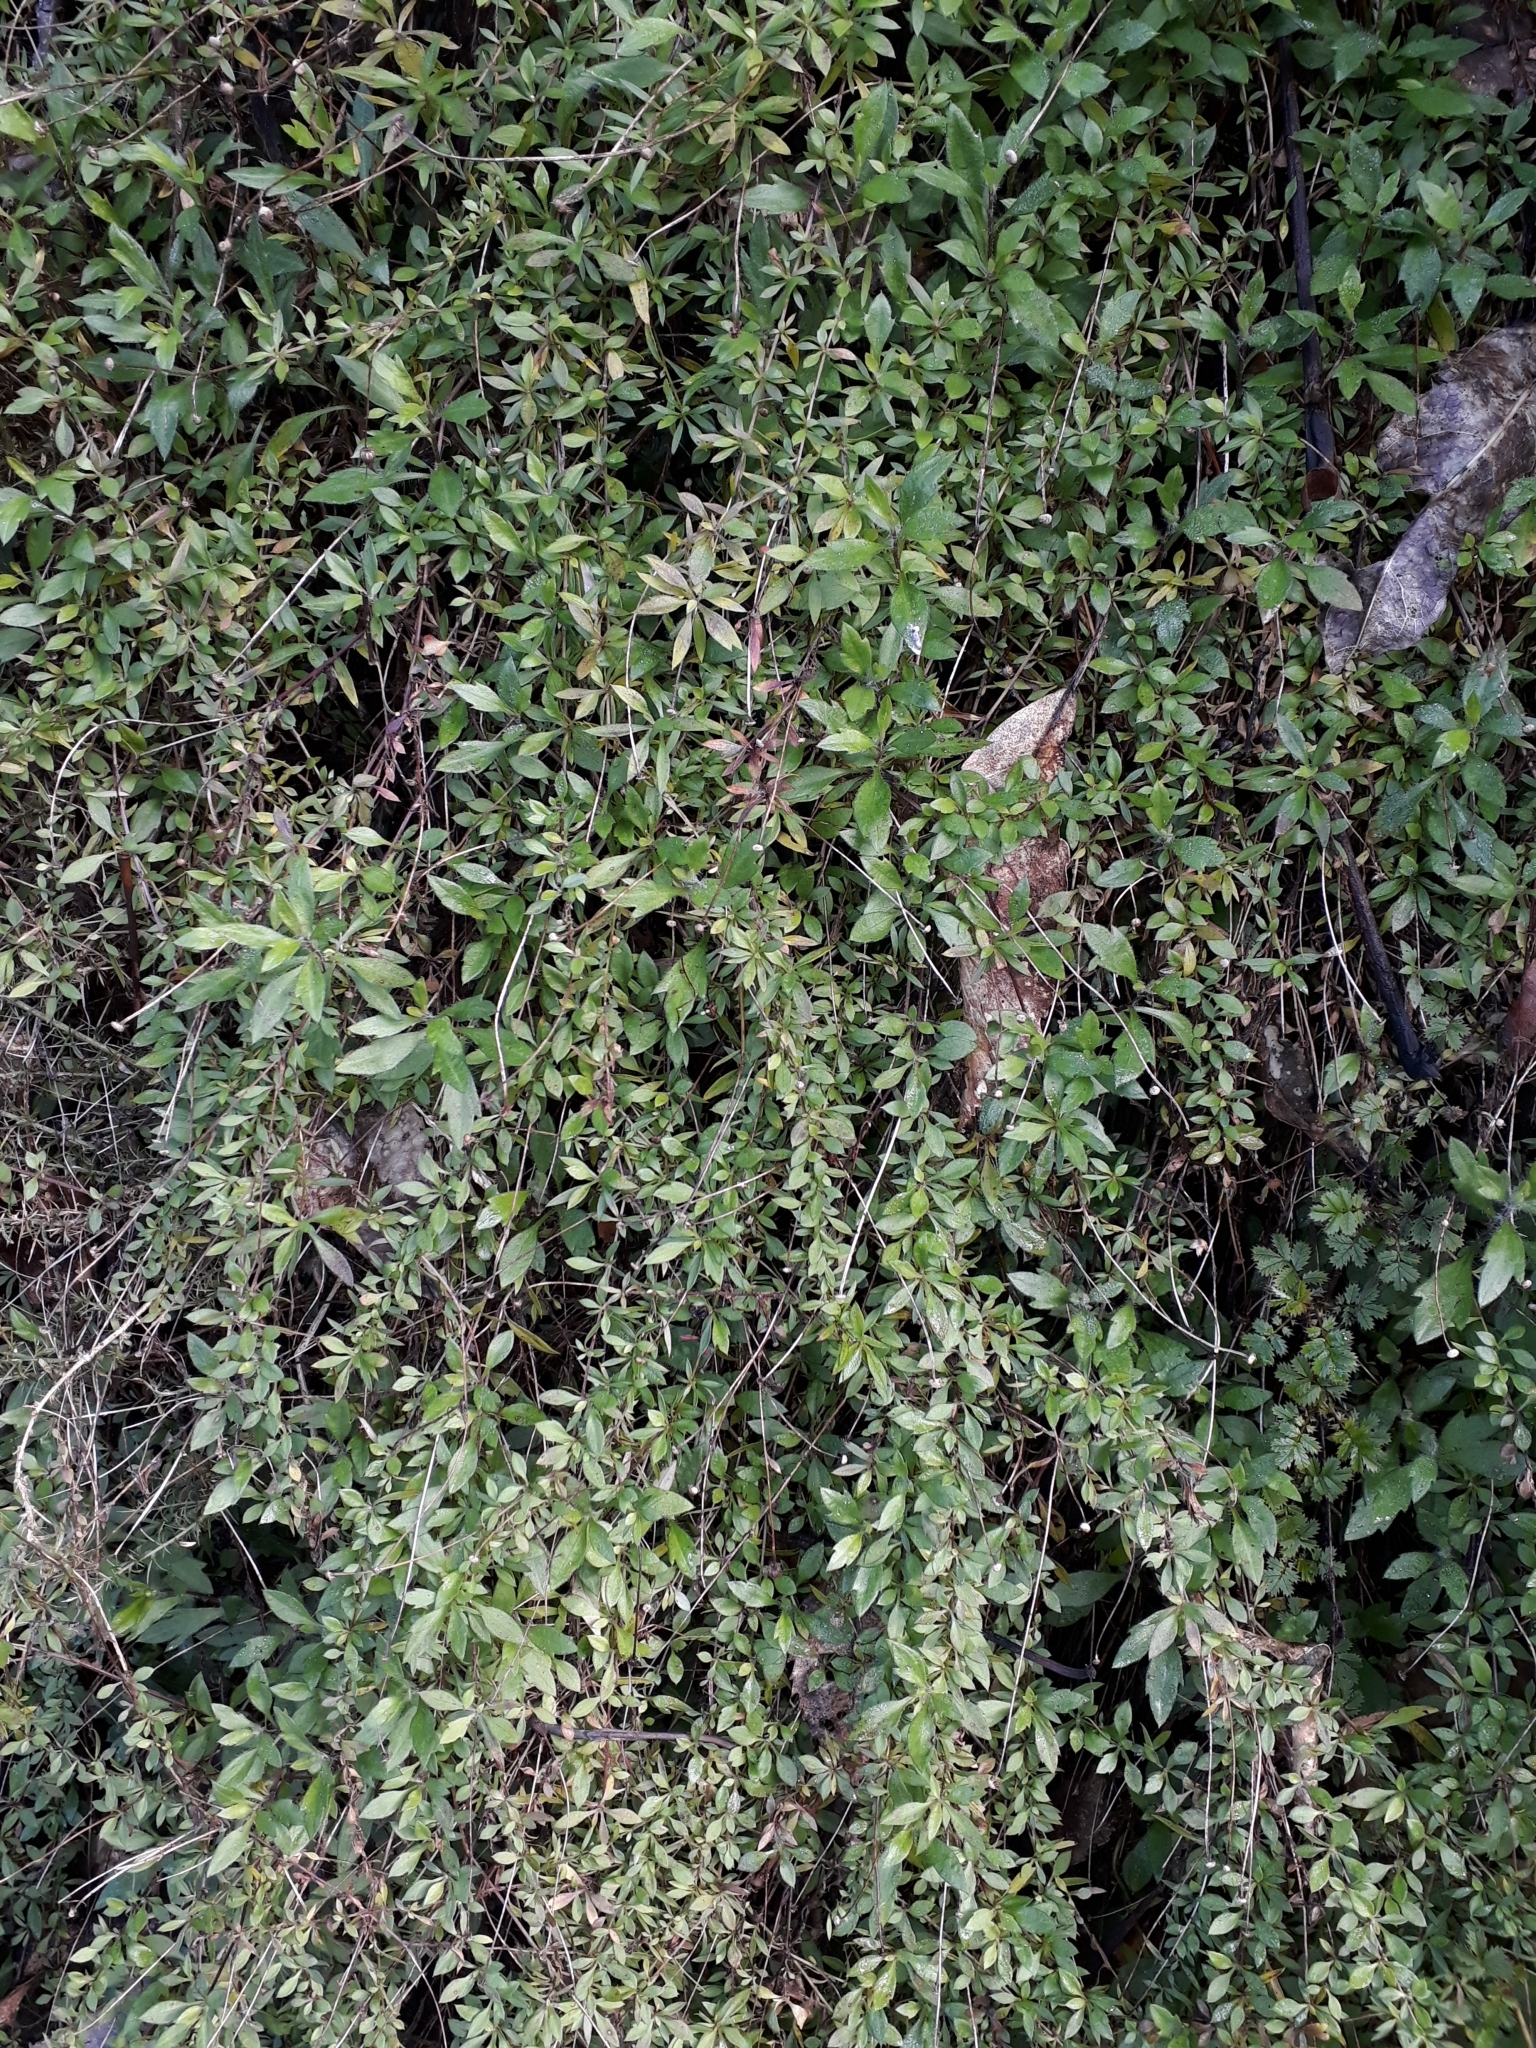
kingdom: Plantae
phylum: Tracheophyta
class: Magnoliopsida
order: Asterales
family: Asteraceae
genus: Erigeron
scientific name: Erigeron karvinskianus
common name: Mexican fleabane
